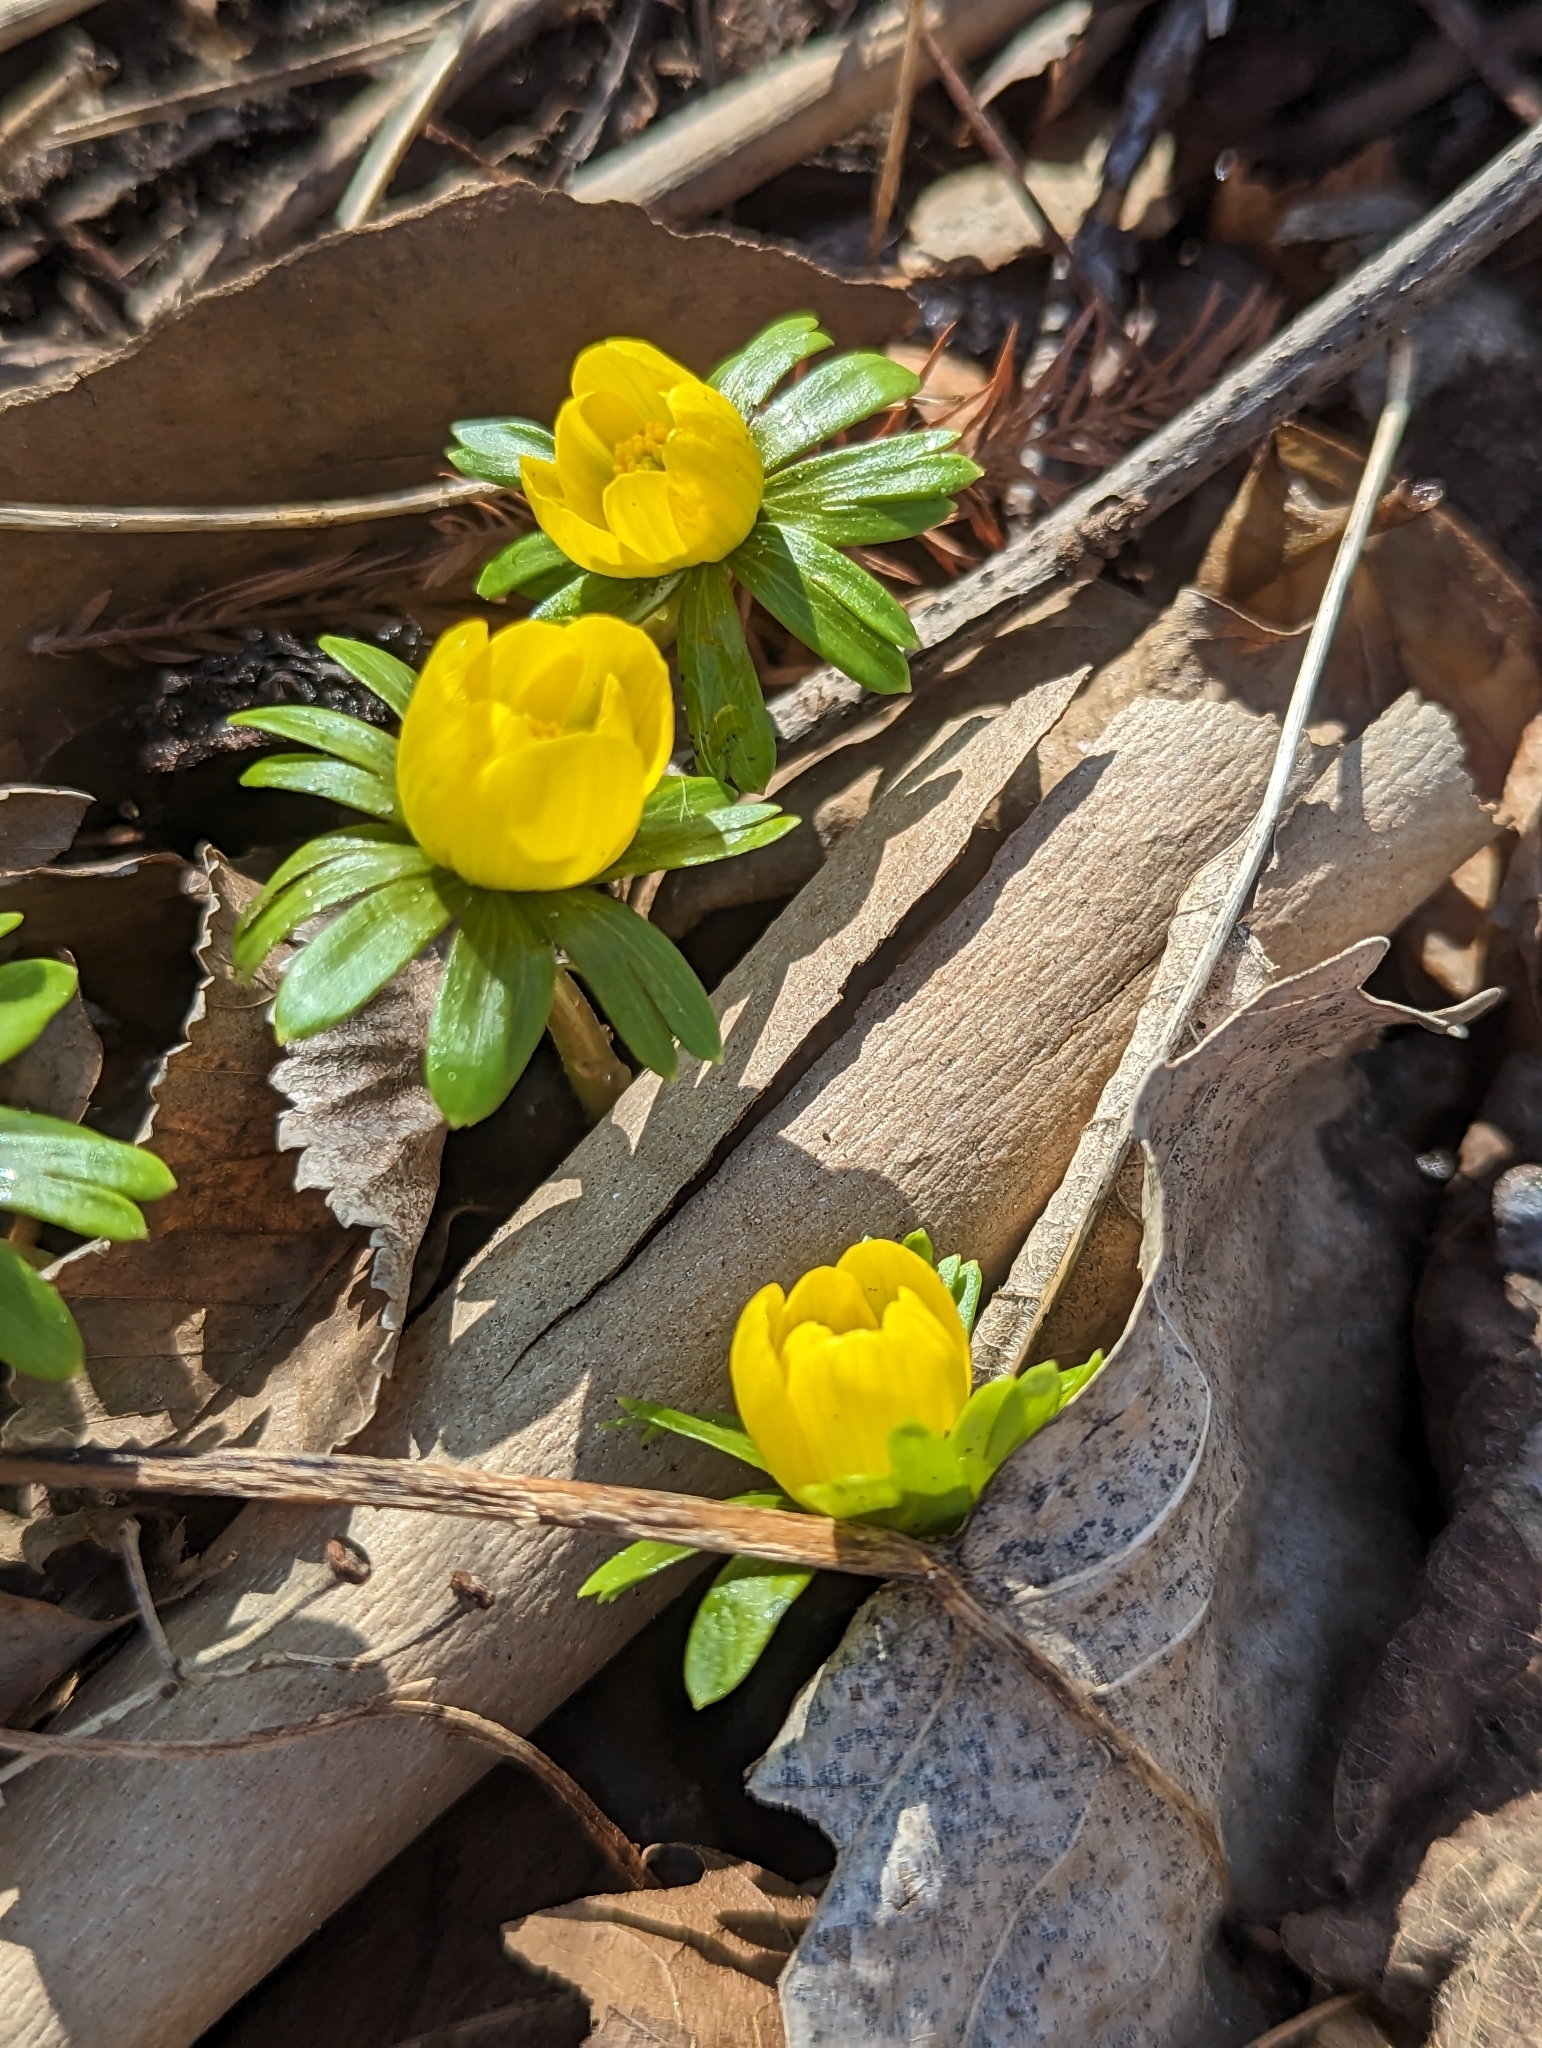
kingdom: Plantae
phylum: Tracheophyta
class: Magnoliopsida
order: Ranunculales
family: Ranunculaceae
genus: Eranthis
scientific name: Eranthis hyemalis
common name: Winter aconite
